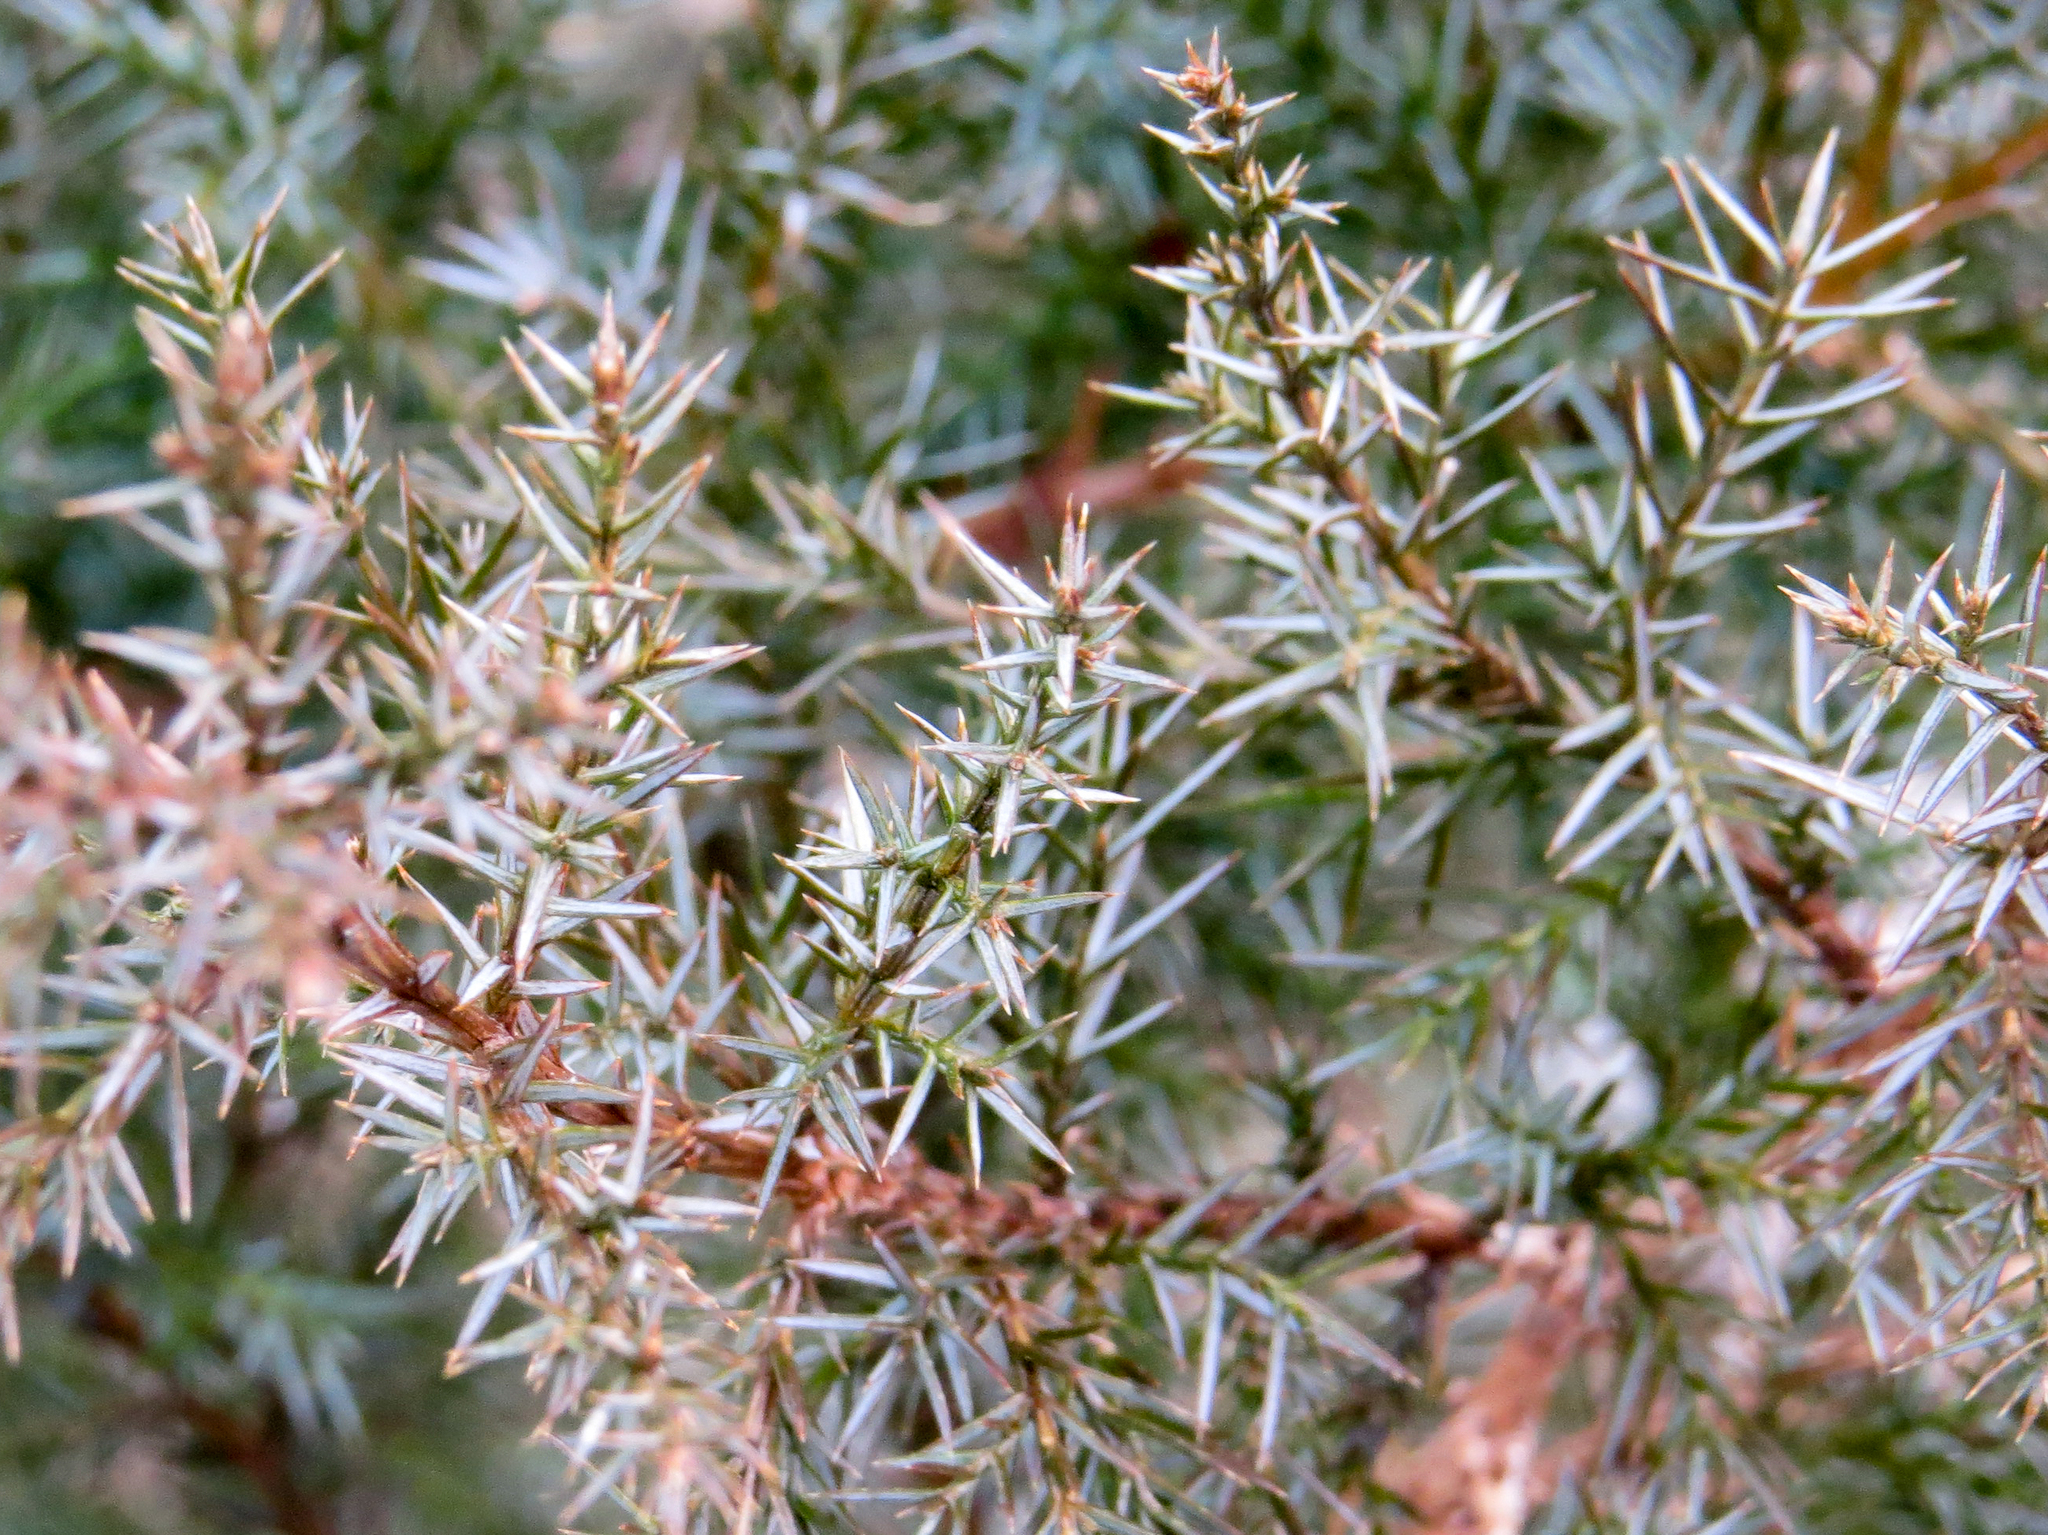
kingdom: Plantae
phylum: Tracheophyta
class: Pinopsida
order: Pinales
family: Cupressaceae
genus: Juniperus
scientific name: Juniperus virginiana
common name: Red juniper
